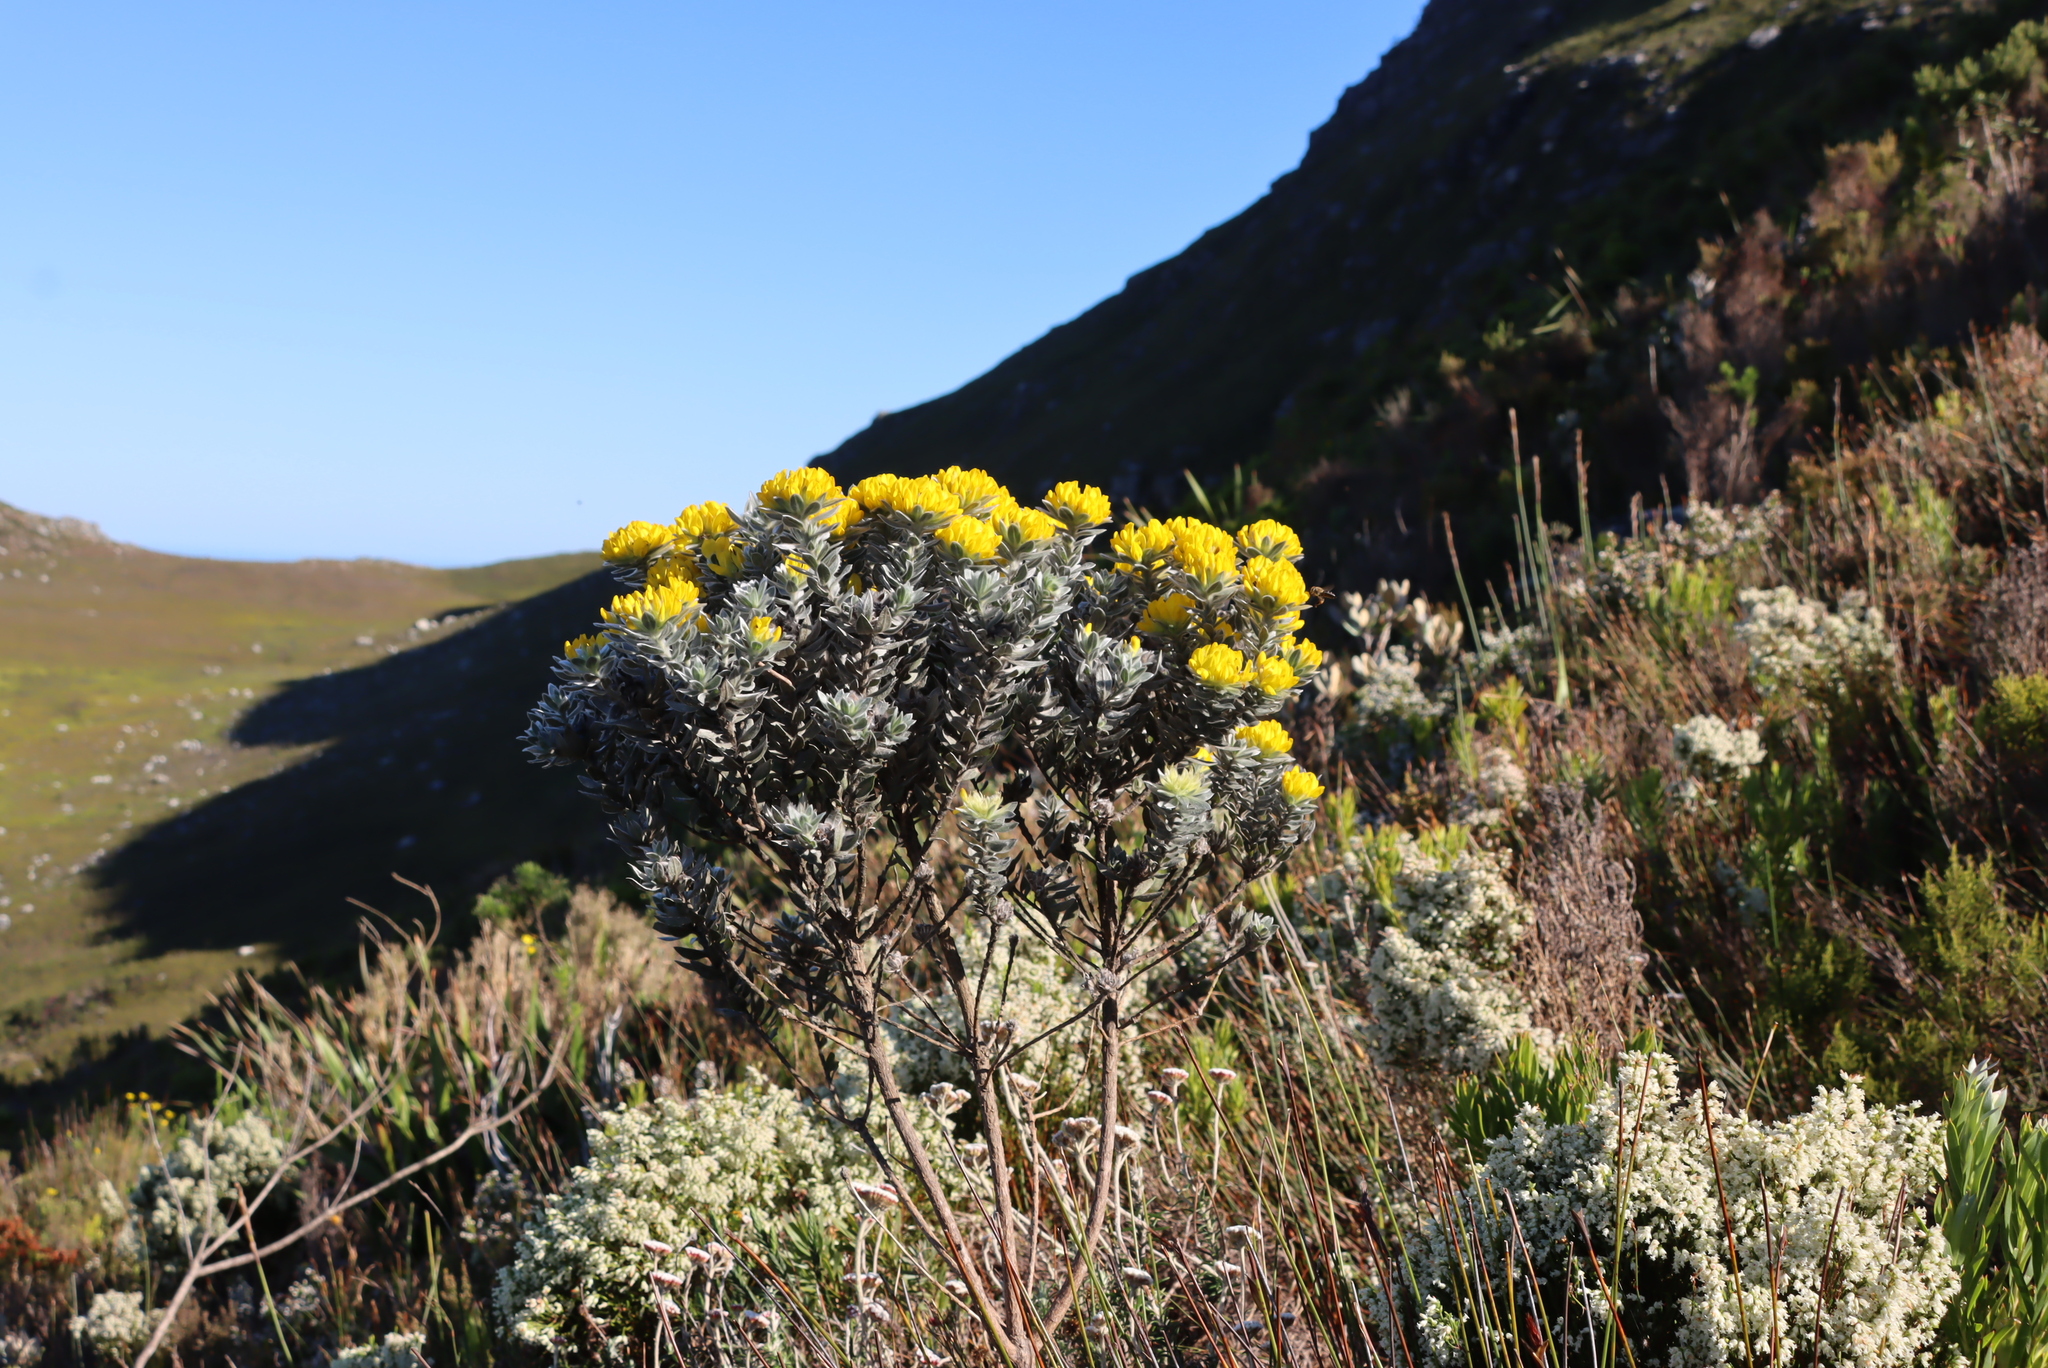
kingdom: Plantae
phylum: Tracheophyta
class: Magnoliopsida
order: Fabales
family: Fabaceae
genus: Xiphotheca
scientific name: Xiphotheca fruticosa
